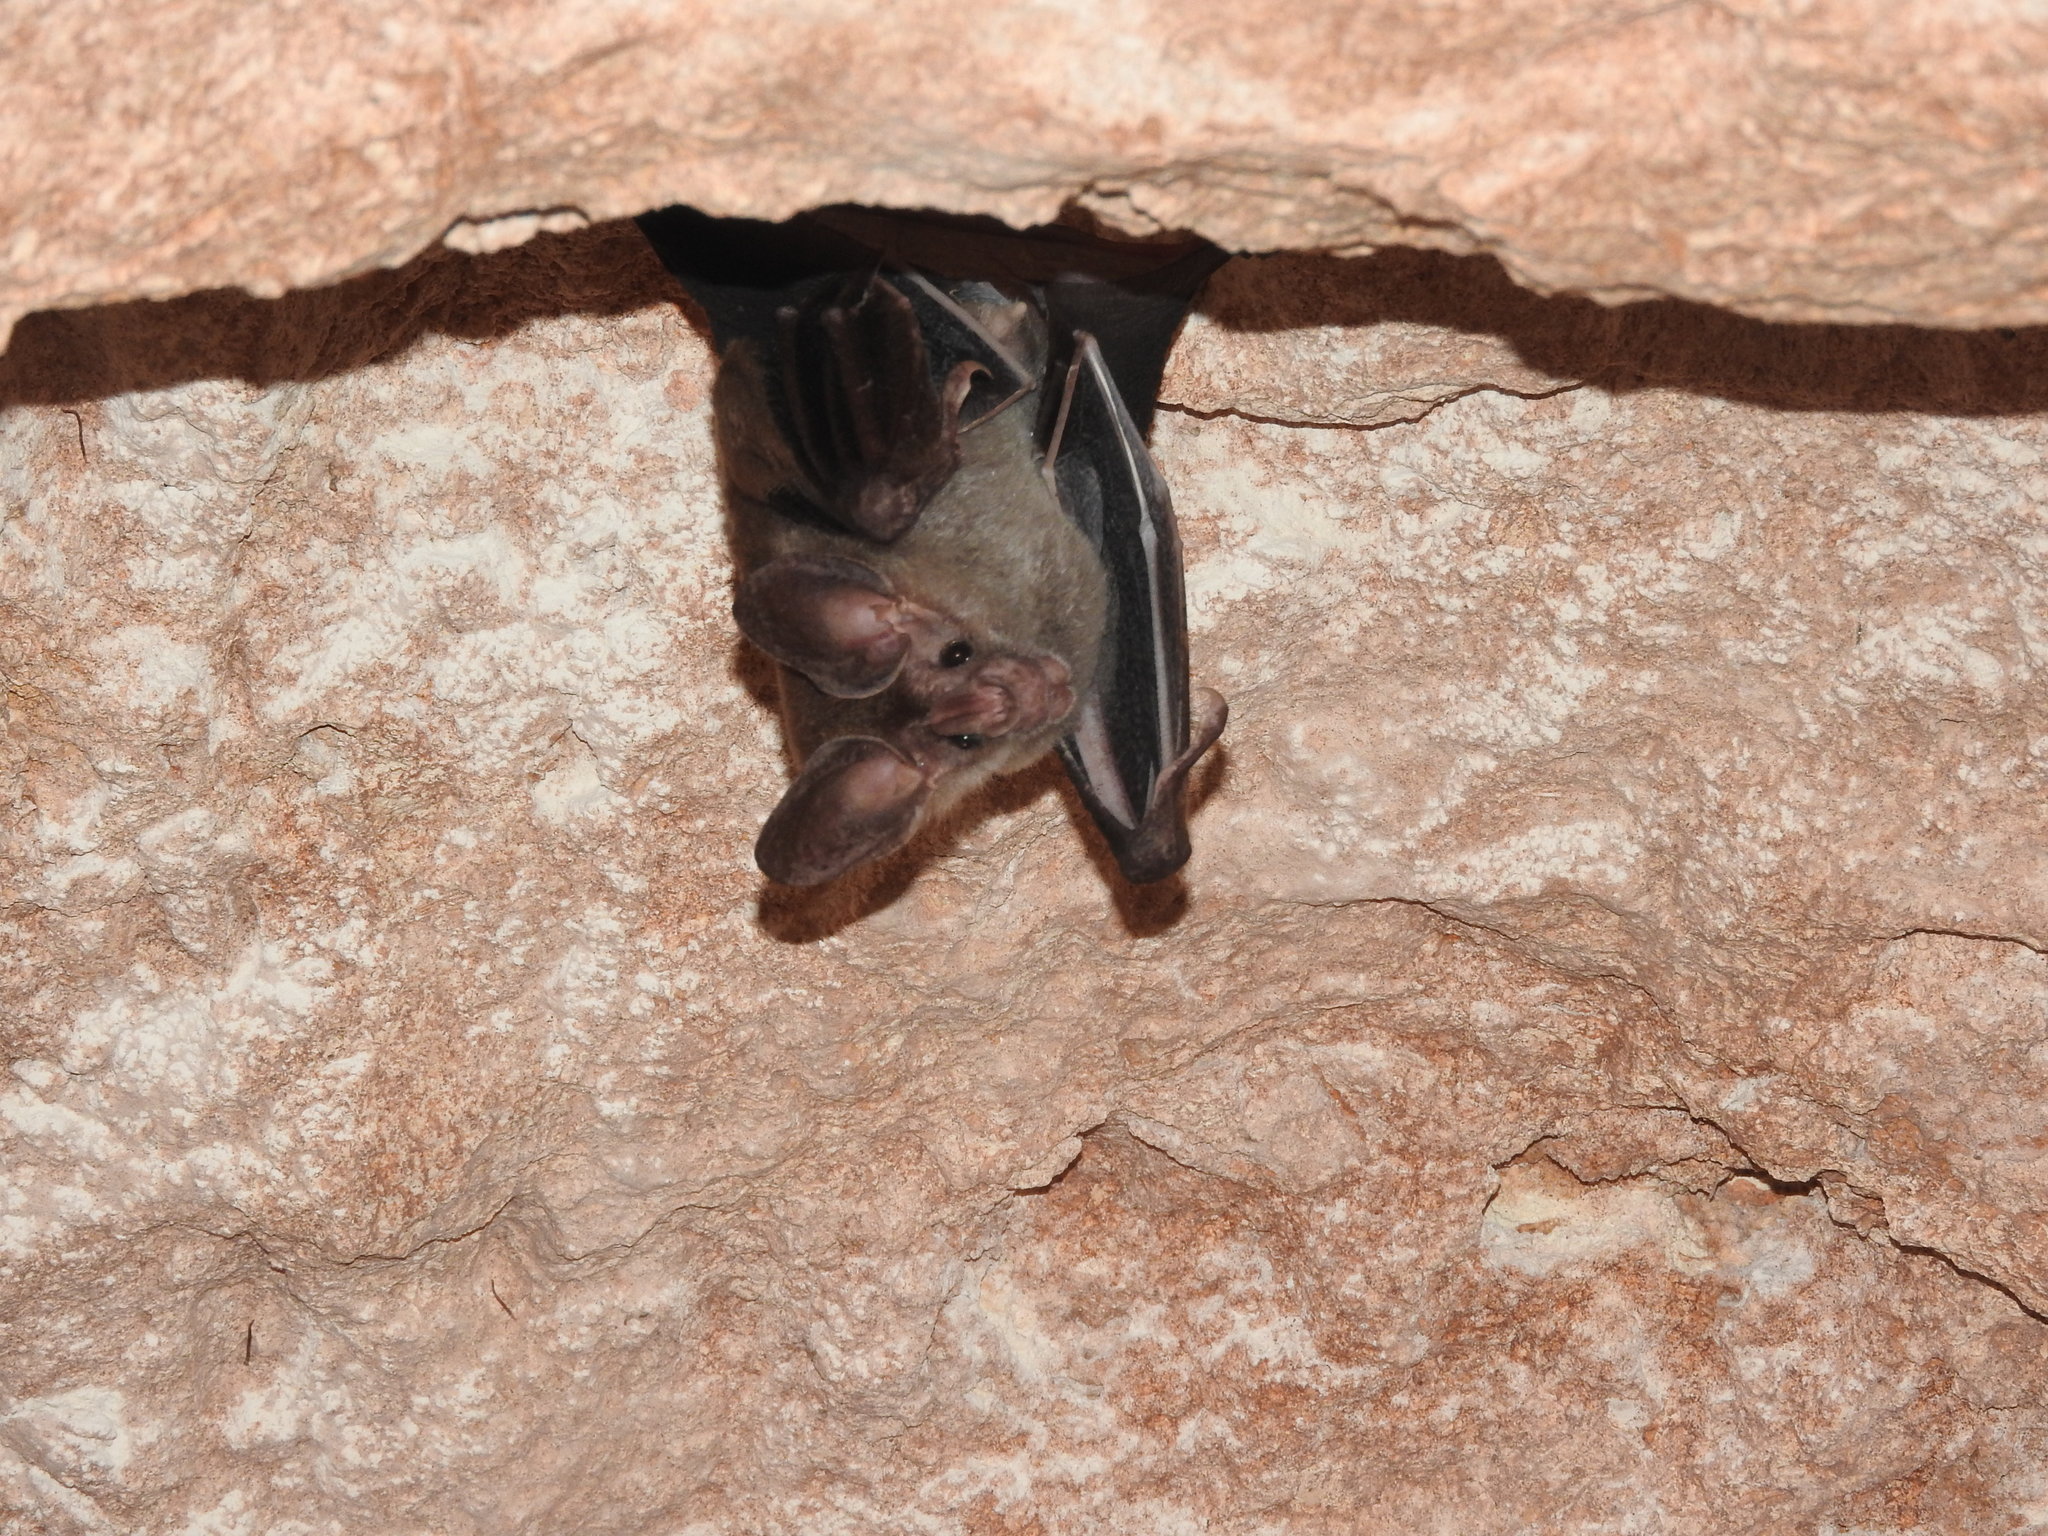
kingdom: Animalia
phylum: Chordata
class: Mammalia
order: Chiroptera
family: Phyllostomidae
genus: Chrotopterus
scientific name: Chrotopterus auritus
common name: Woolly false vampire bat
